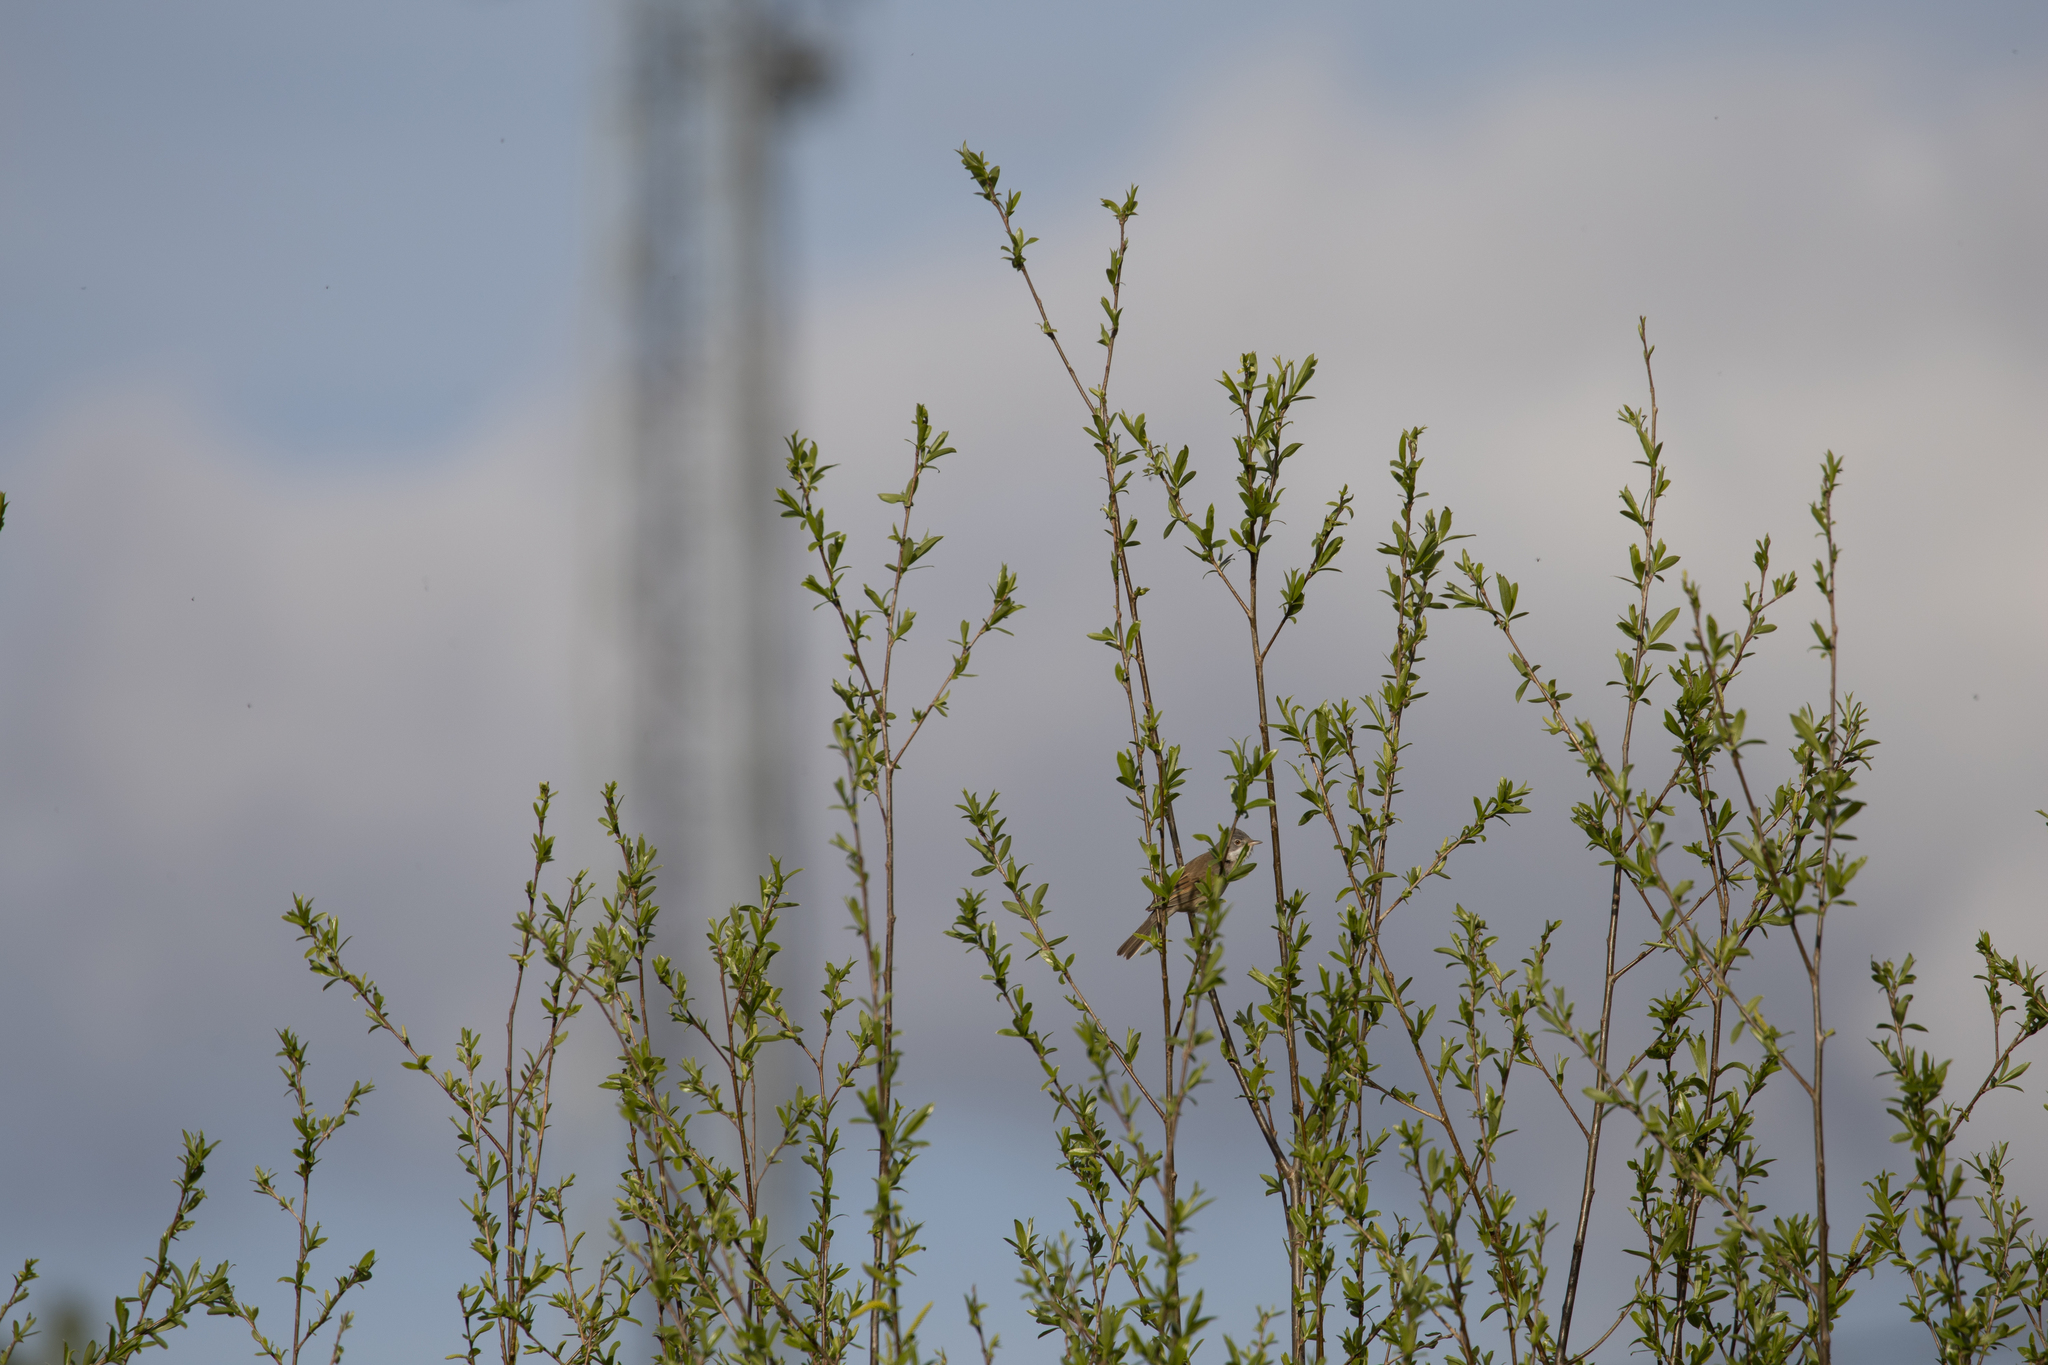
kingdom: Animalia
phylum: Chordata
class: Aves
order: Passeriformes
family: Sylviidae
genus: Sylvia
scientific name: Sylvia communis
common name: Common whitethroat
